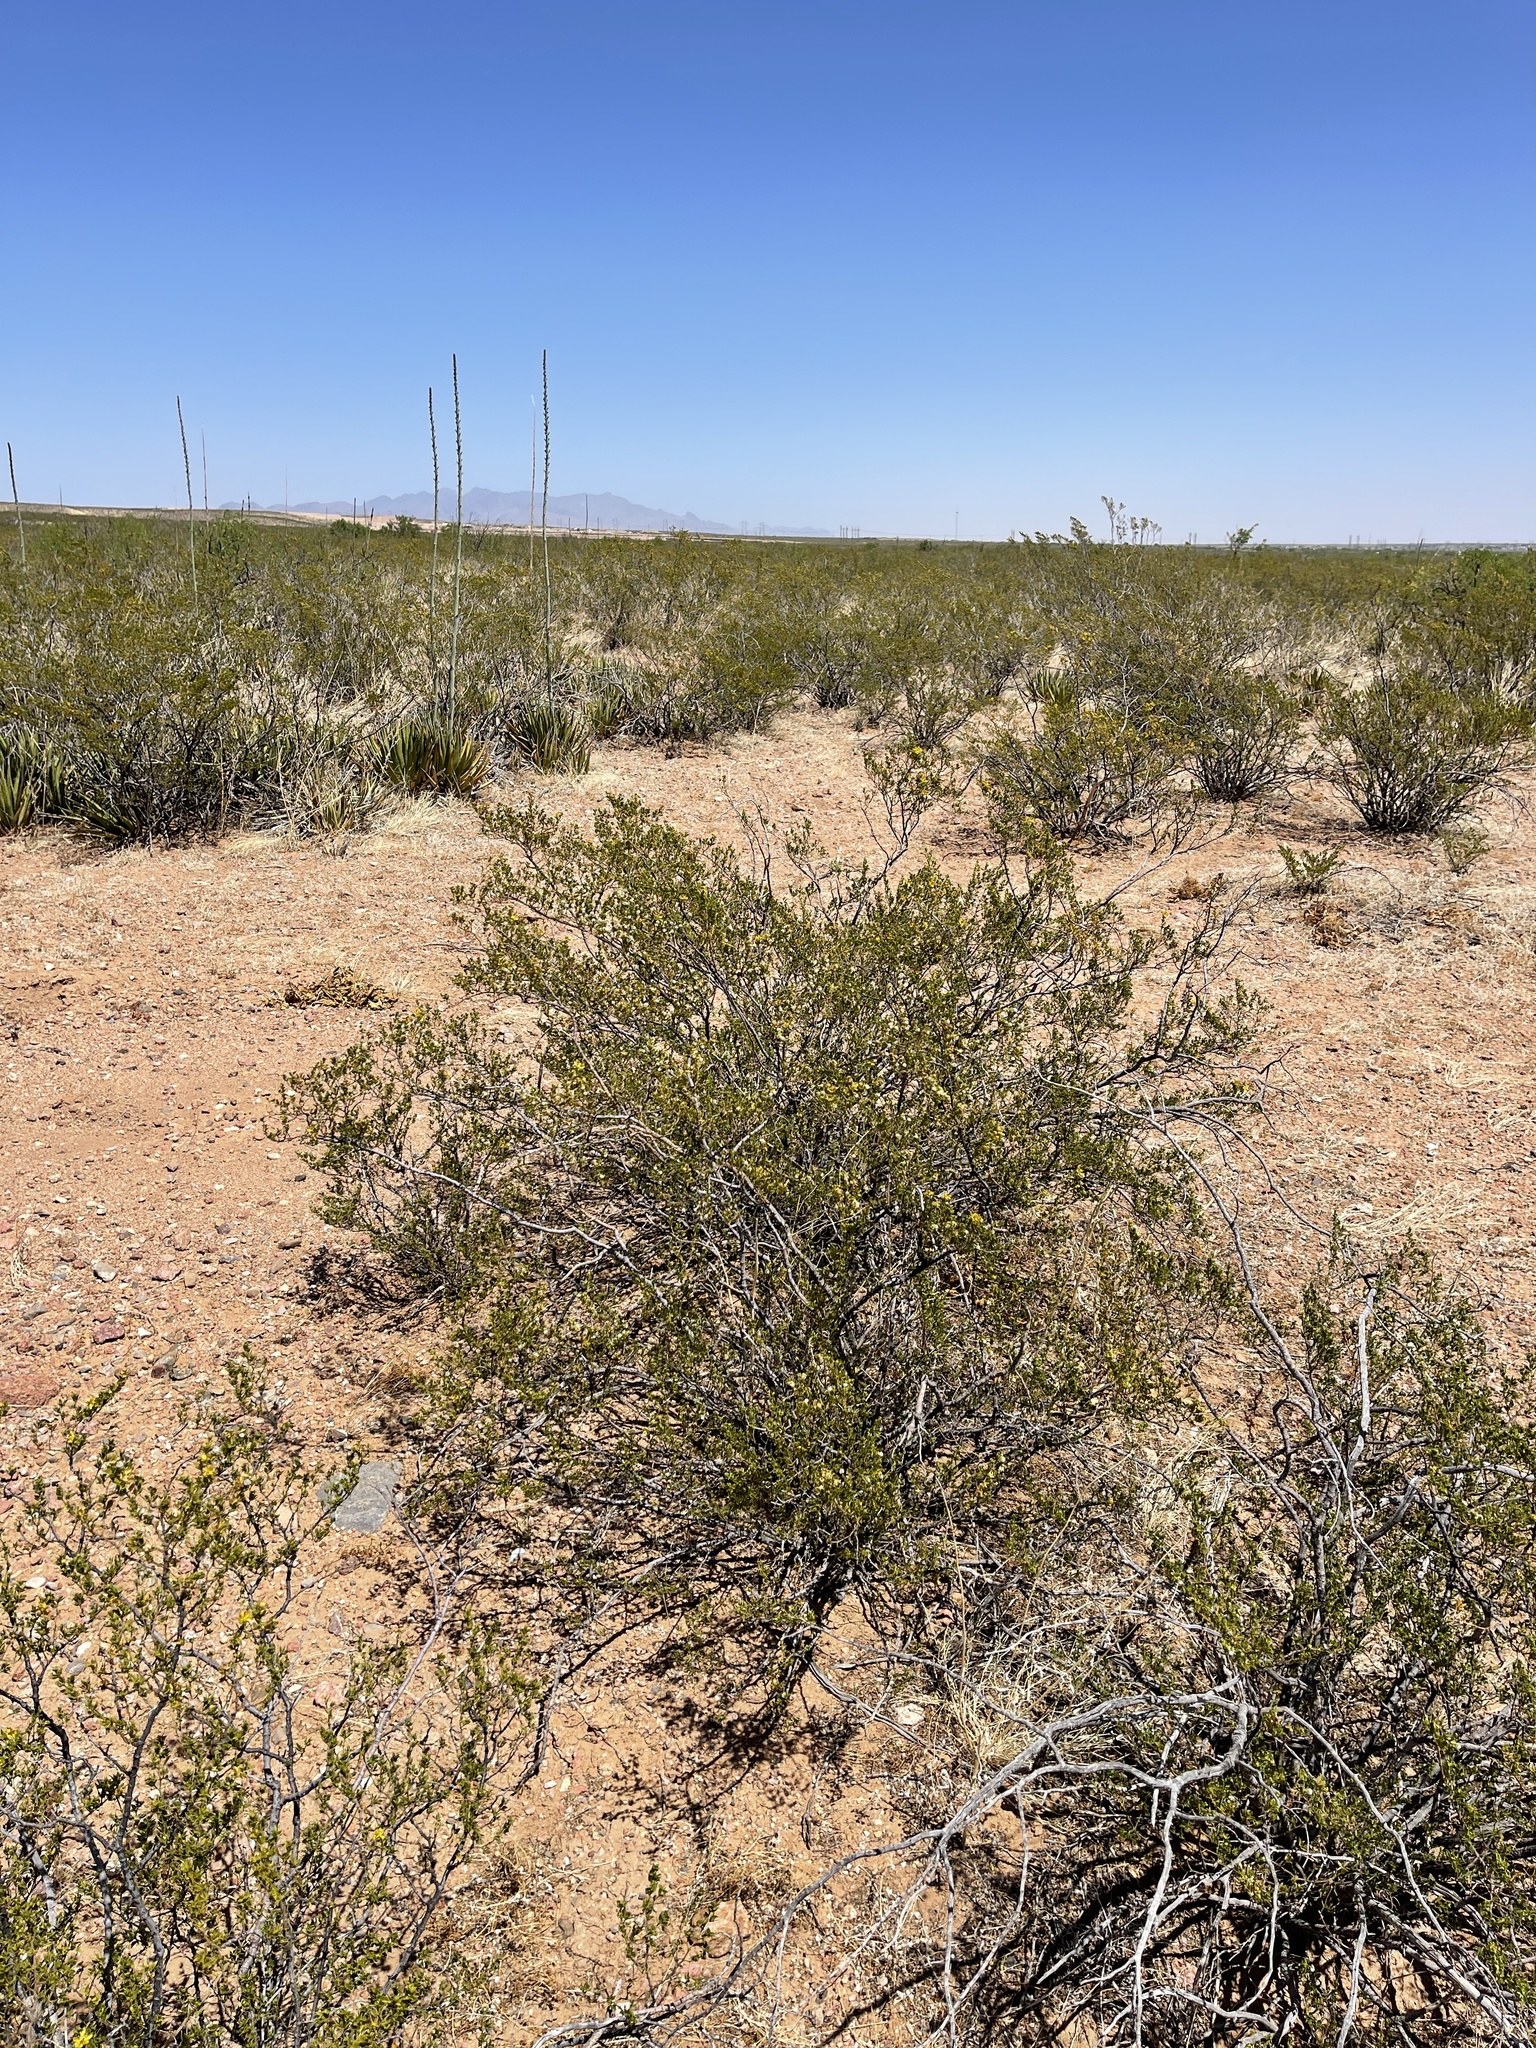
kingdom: Plantae
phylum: Tracheophyta
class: Magnoliopsida
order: Zygophyllales
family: Zygophyllaceae
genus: Larrea
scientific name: Larrea tridentata
